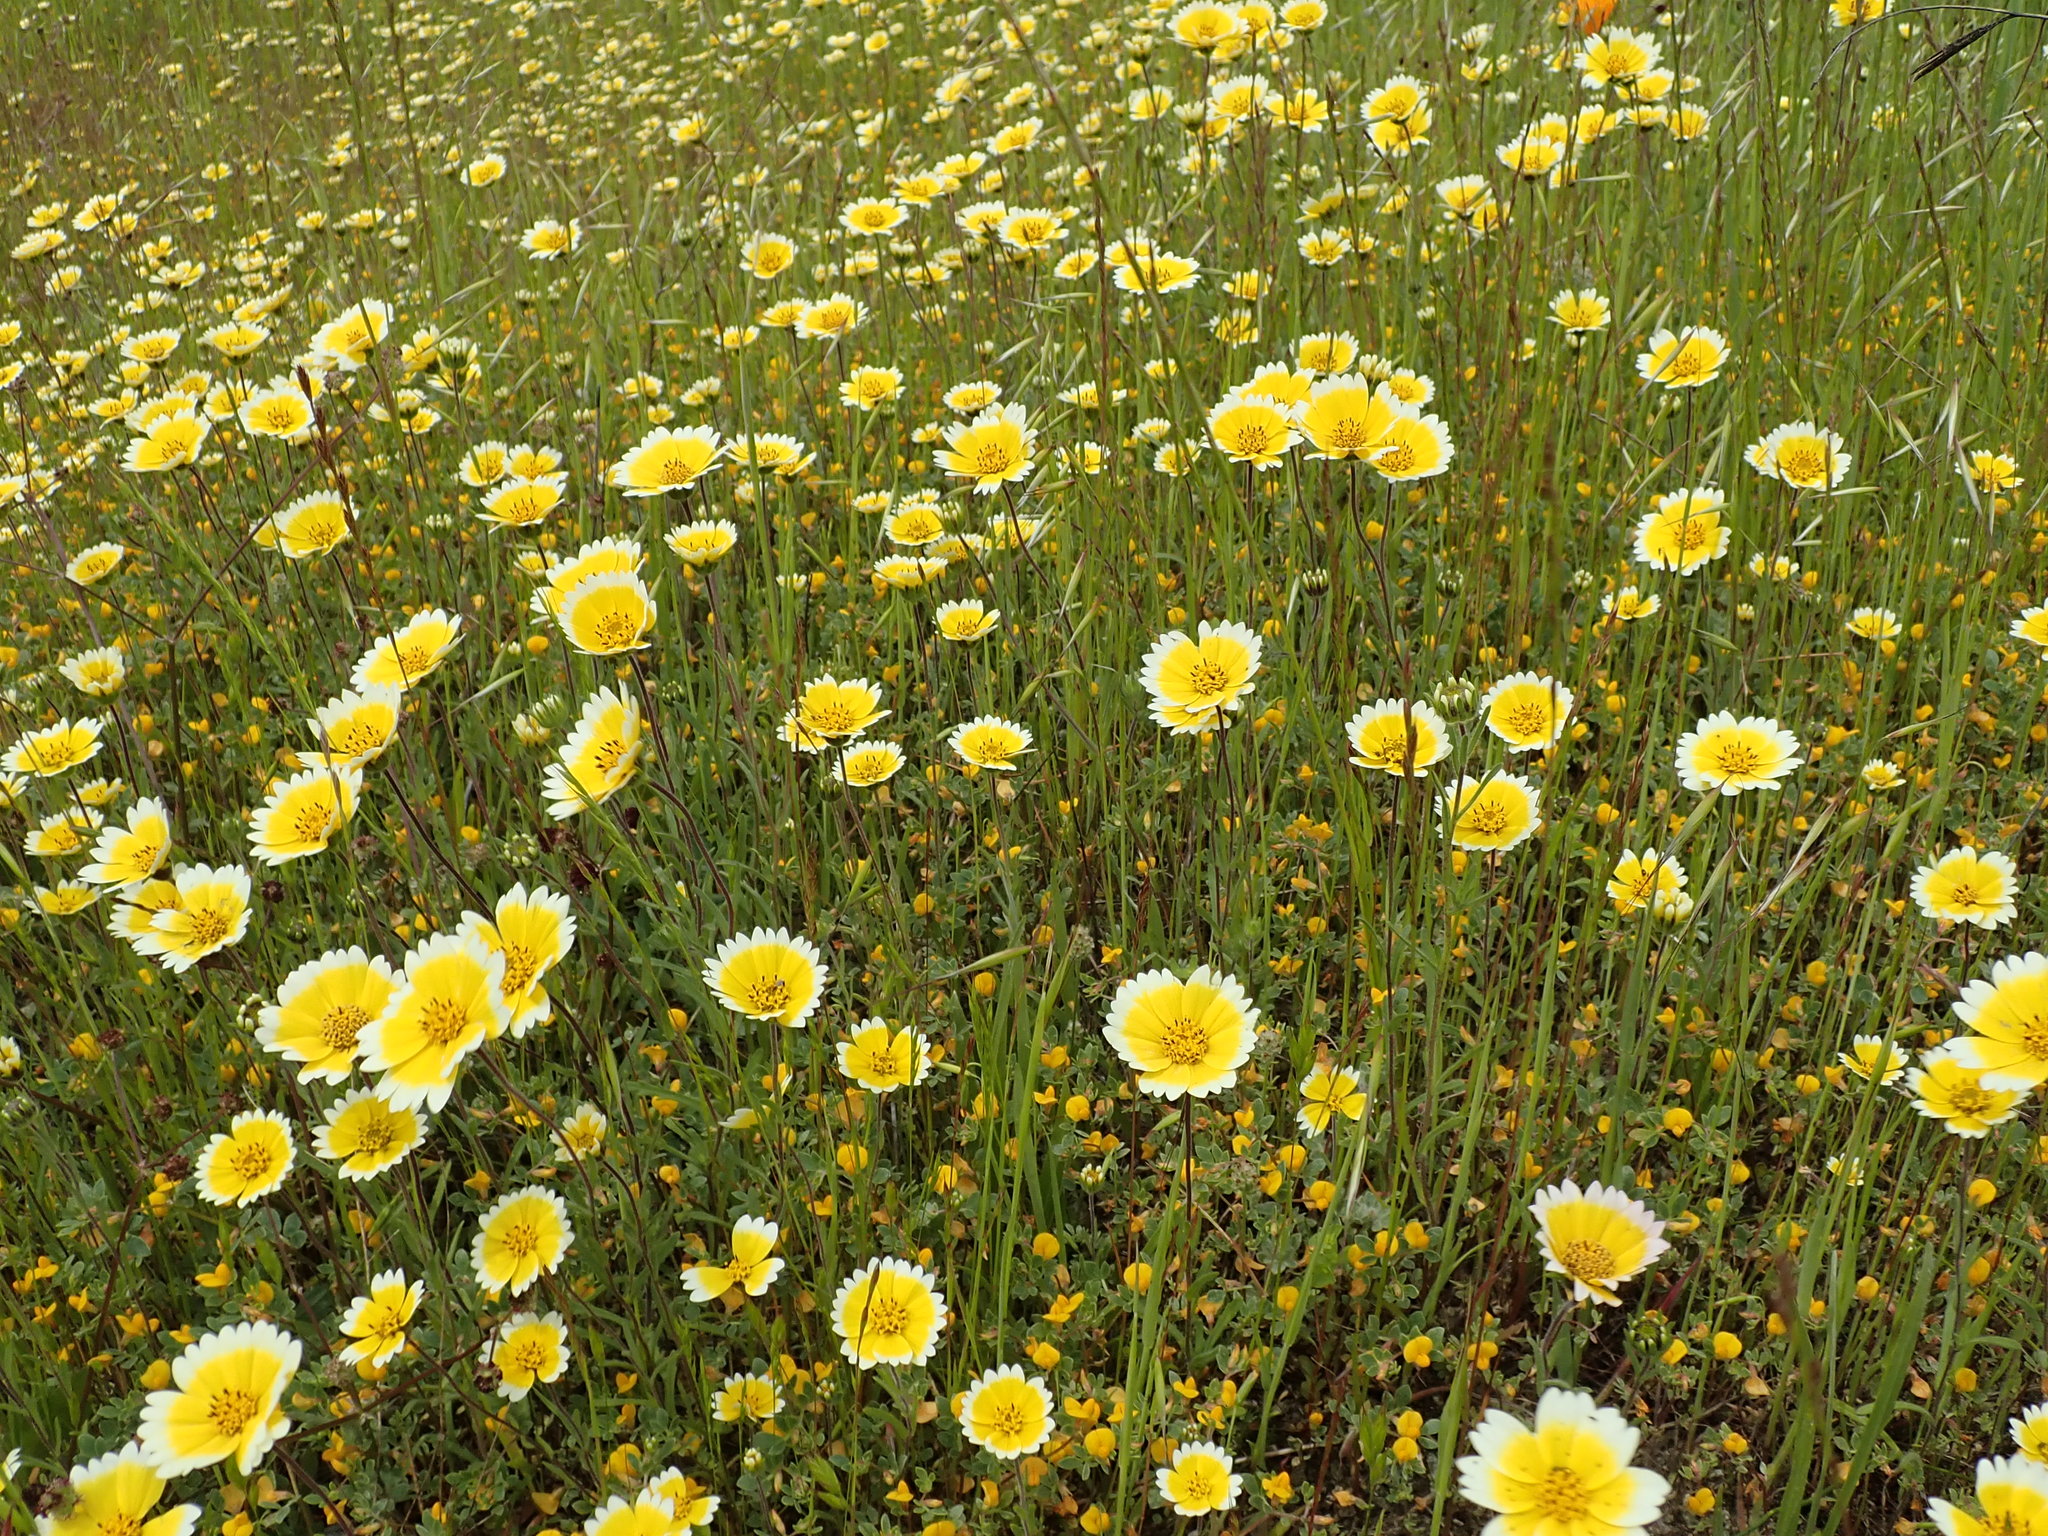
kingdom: Plantae
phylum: Tracheophyta
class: Magnoliopsida
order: Asterales
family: Asteraceae
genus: Layia
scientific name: Layia platyglossa
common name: Tidy-tips
